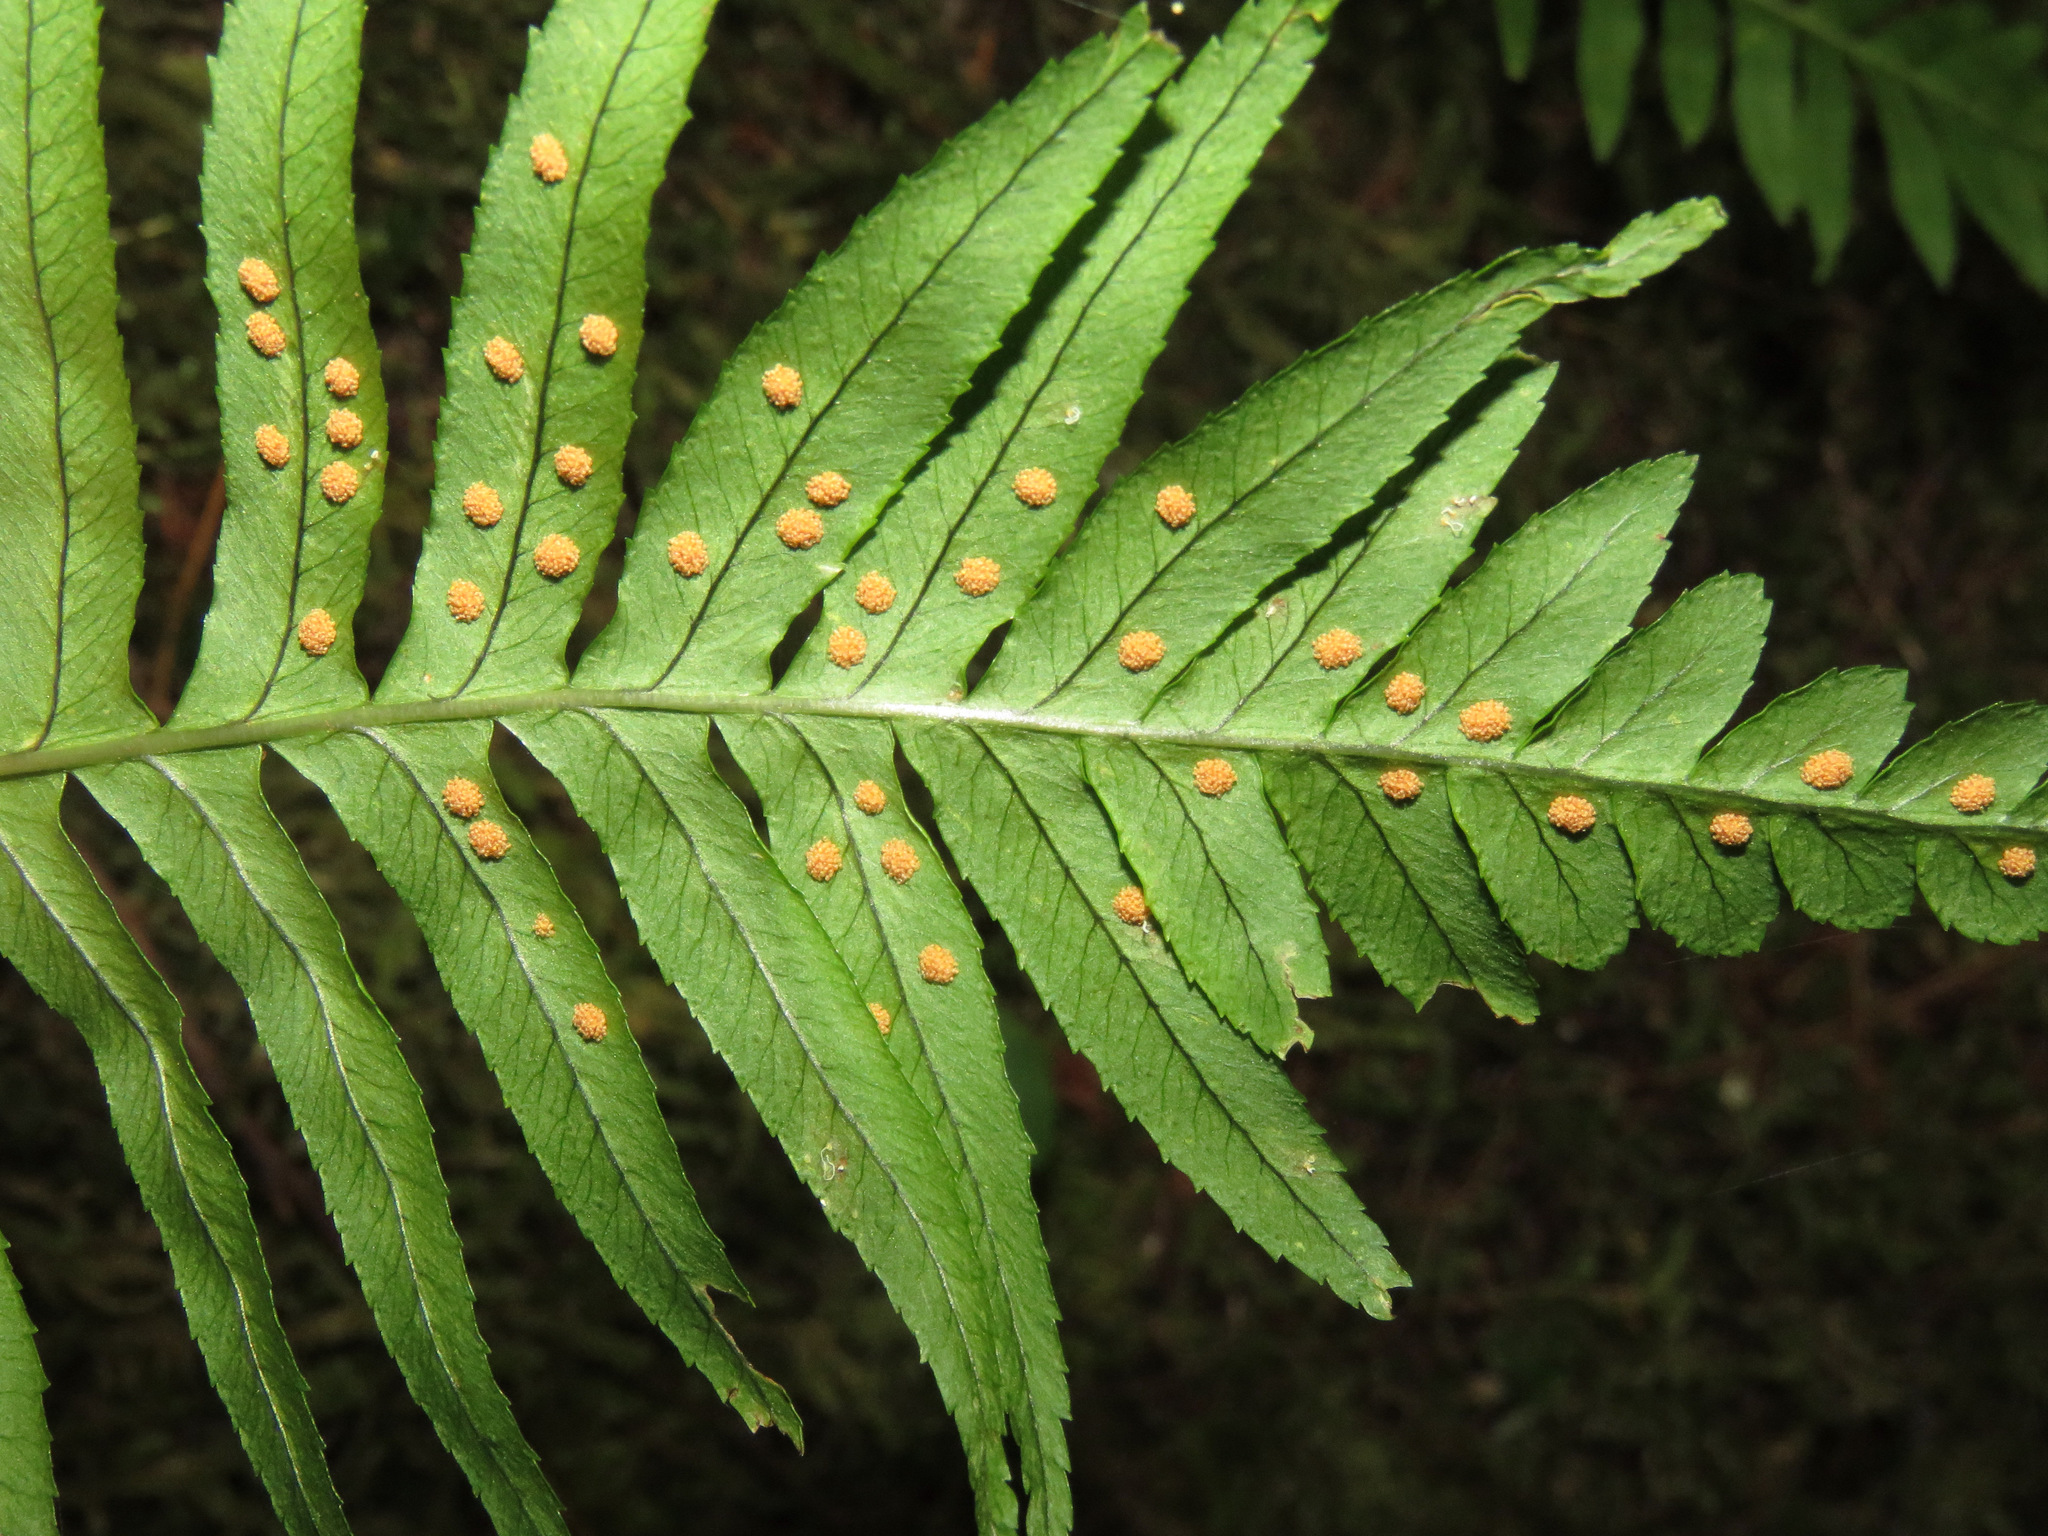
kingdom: Plantae
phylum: Tracheophyta
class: Polypodiopsida
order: Polypodiales
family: Polypodiaceae
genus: Polypodium
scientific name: Polypodium glycyrrhiza
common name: Licorice fern
